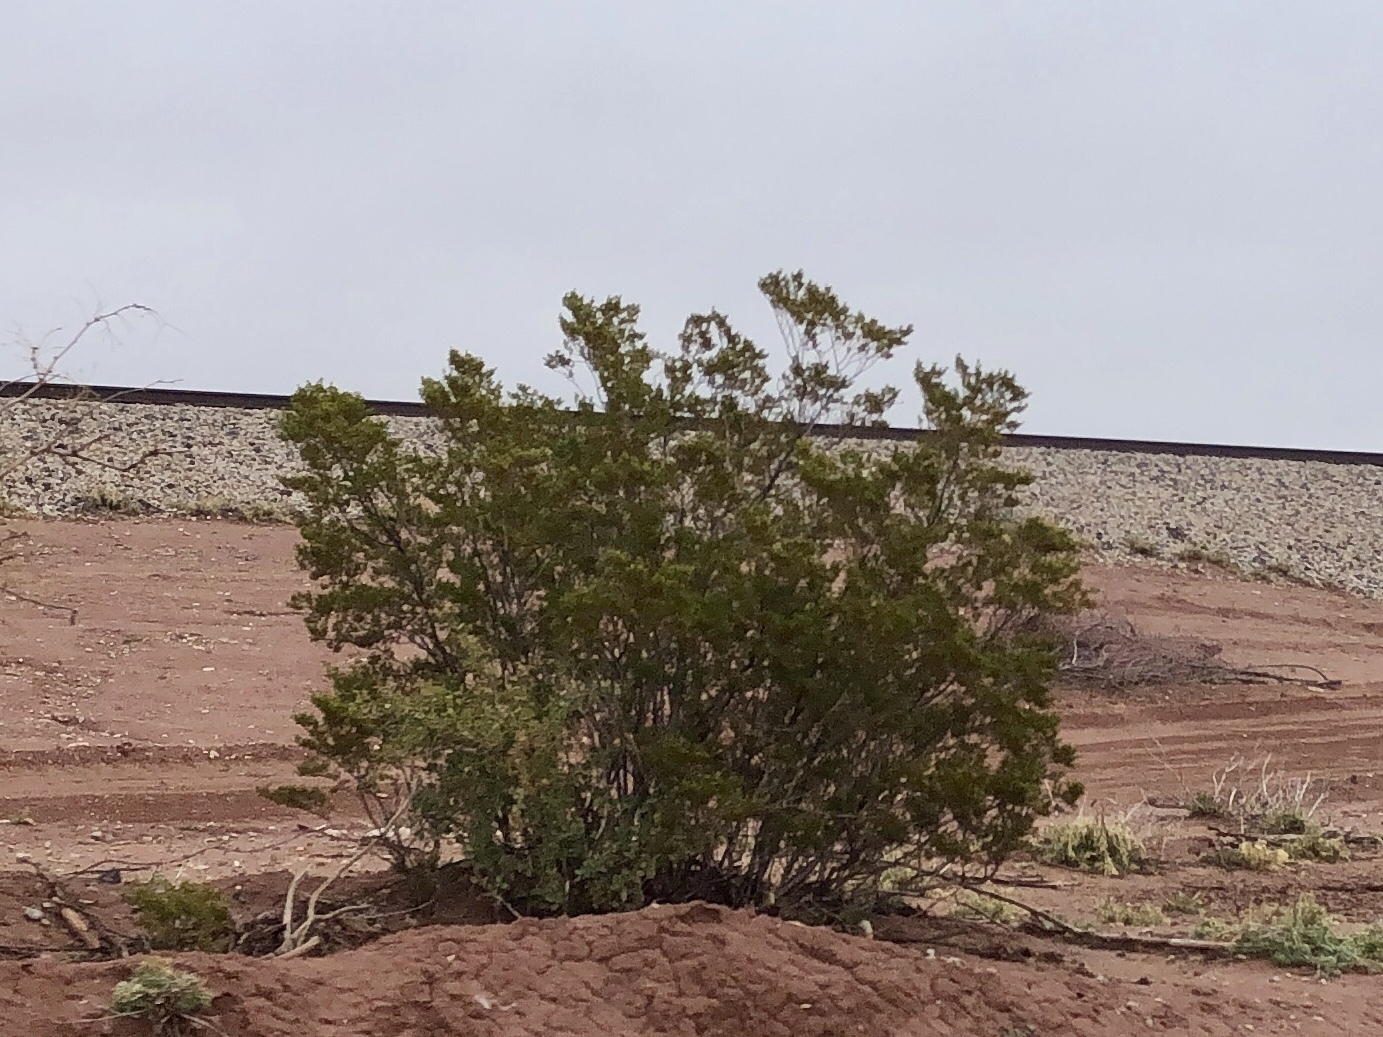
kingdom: Plantae
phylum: Tracheophyta
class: Magnoliopsida
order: Zygophyllales
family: Zygophyllaceae
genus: Larrea
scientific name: Larrea tridentata
